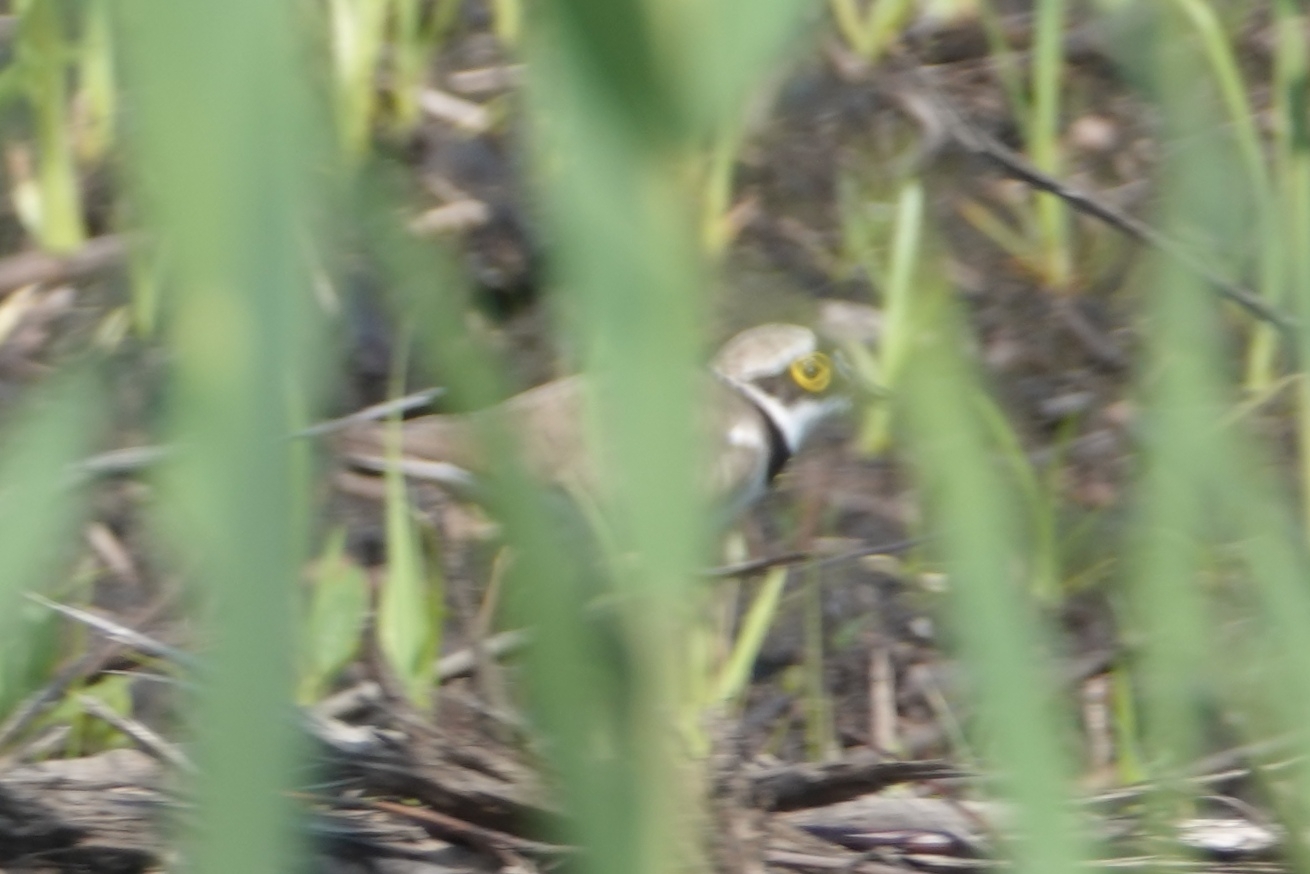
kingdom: Animalia
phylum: Chordata
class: Aves
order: Charadriiformes
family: Charadriidae
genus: Charadrius
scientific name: Charadrius dubius
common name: Little ringed plover
